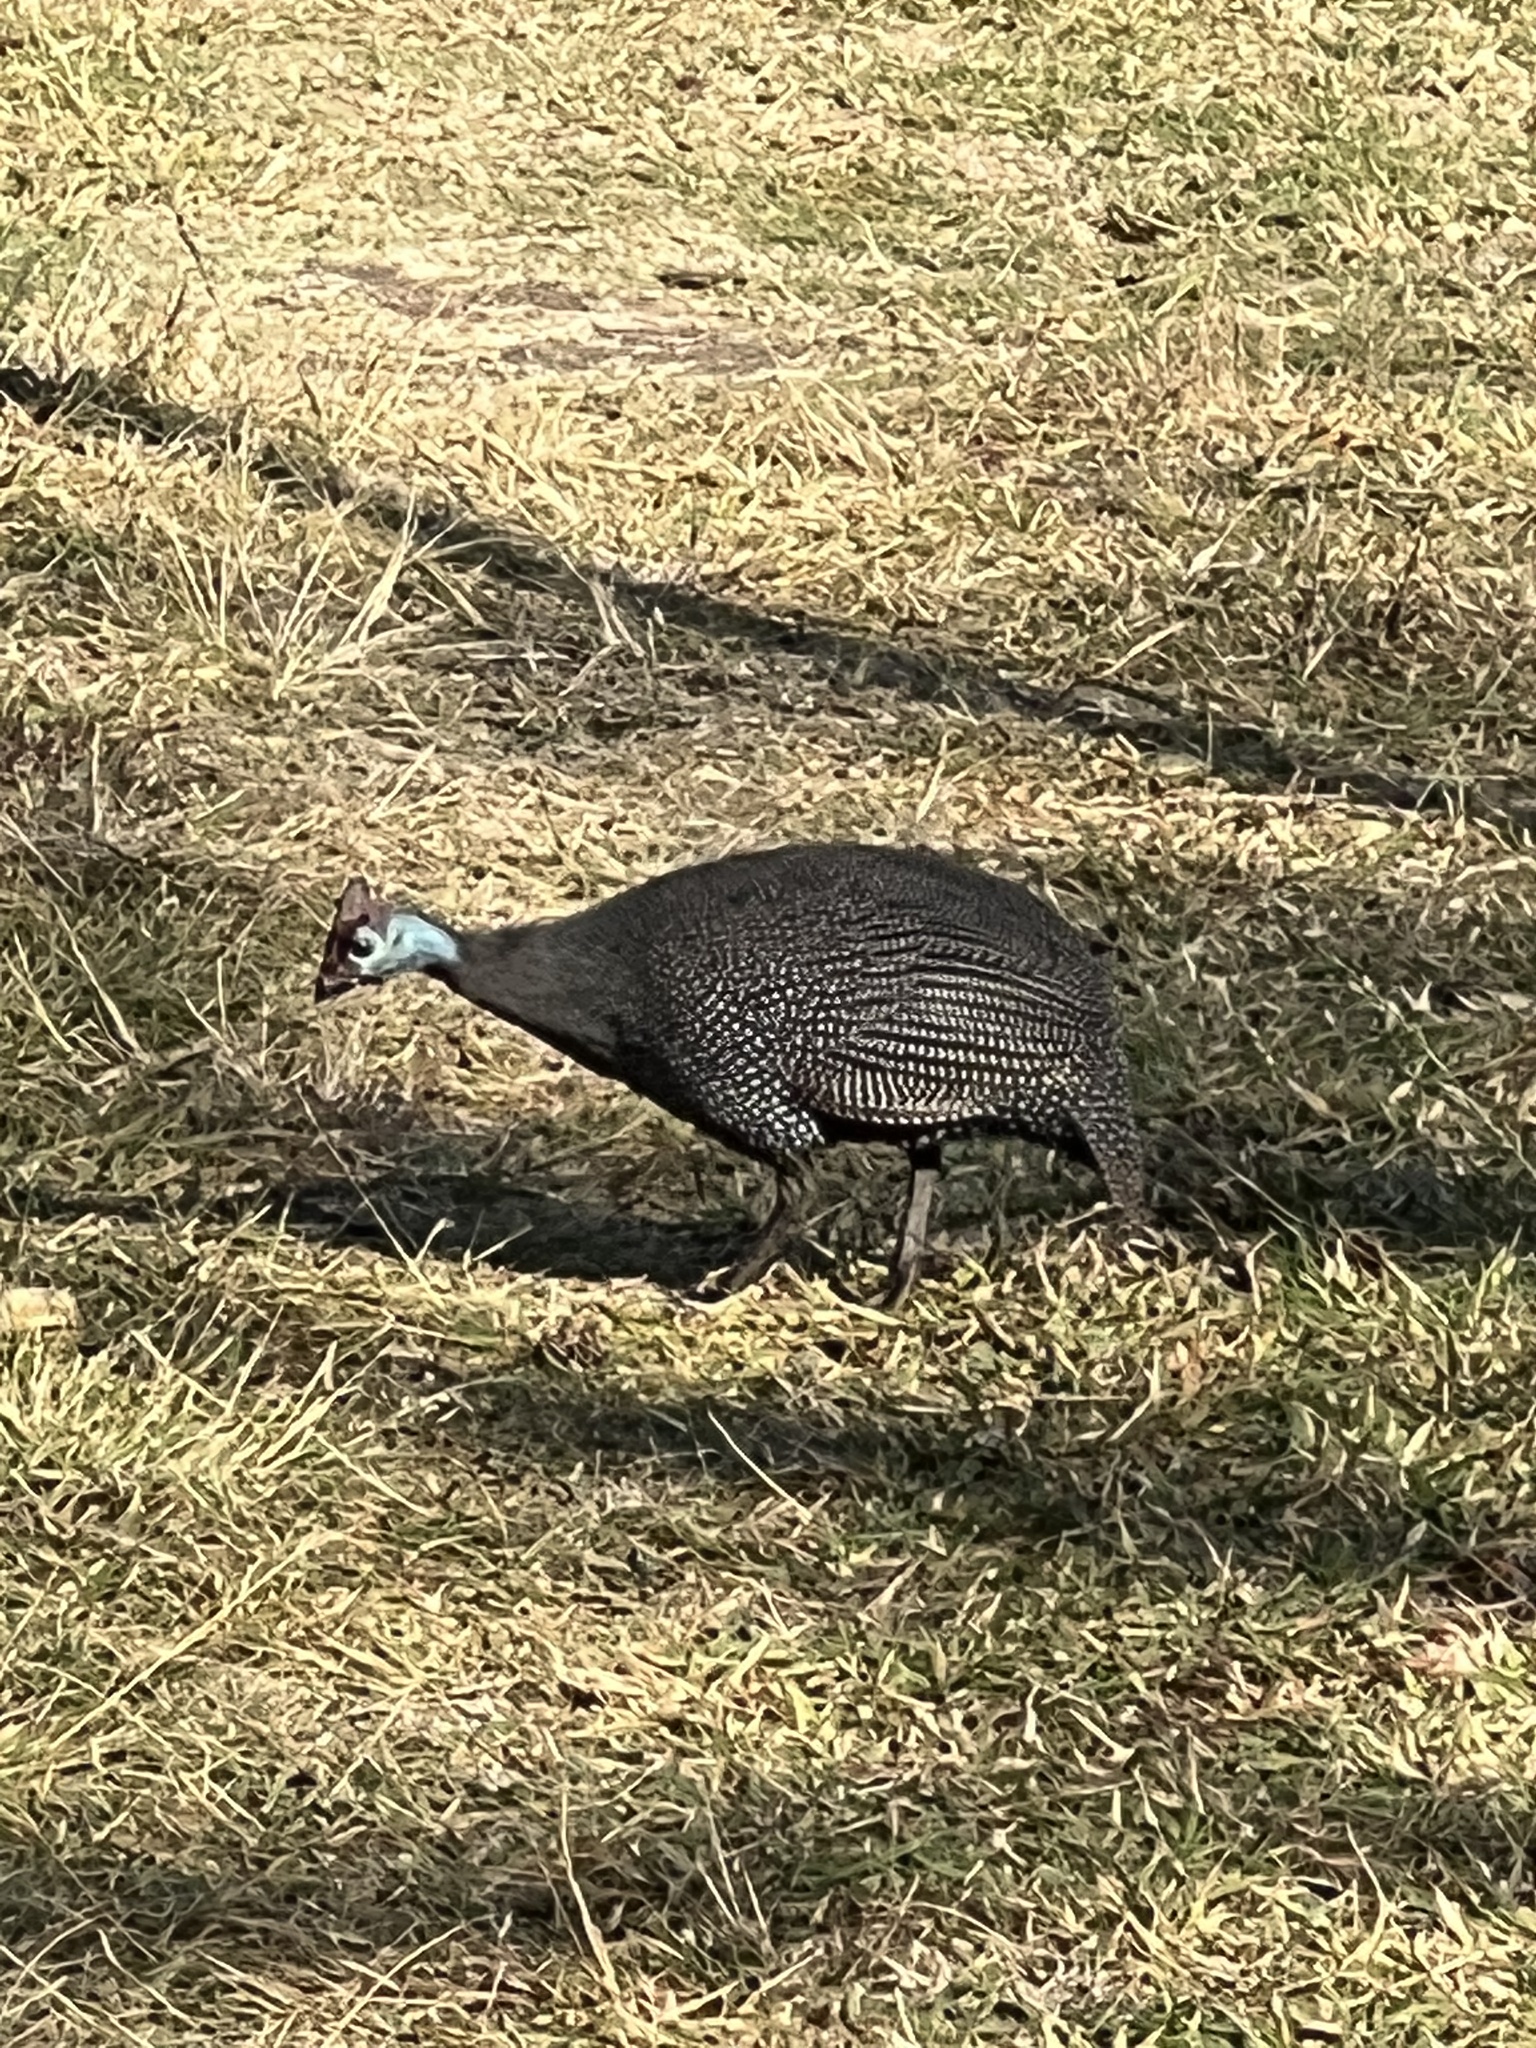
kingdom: Animalia
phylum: Chordata
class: Aves
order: Galliformes
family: Numididae
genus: Numida
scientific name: Numida meleagris
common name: Helmeted guineafowl
